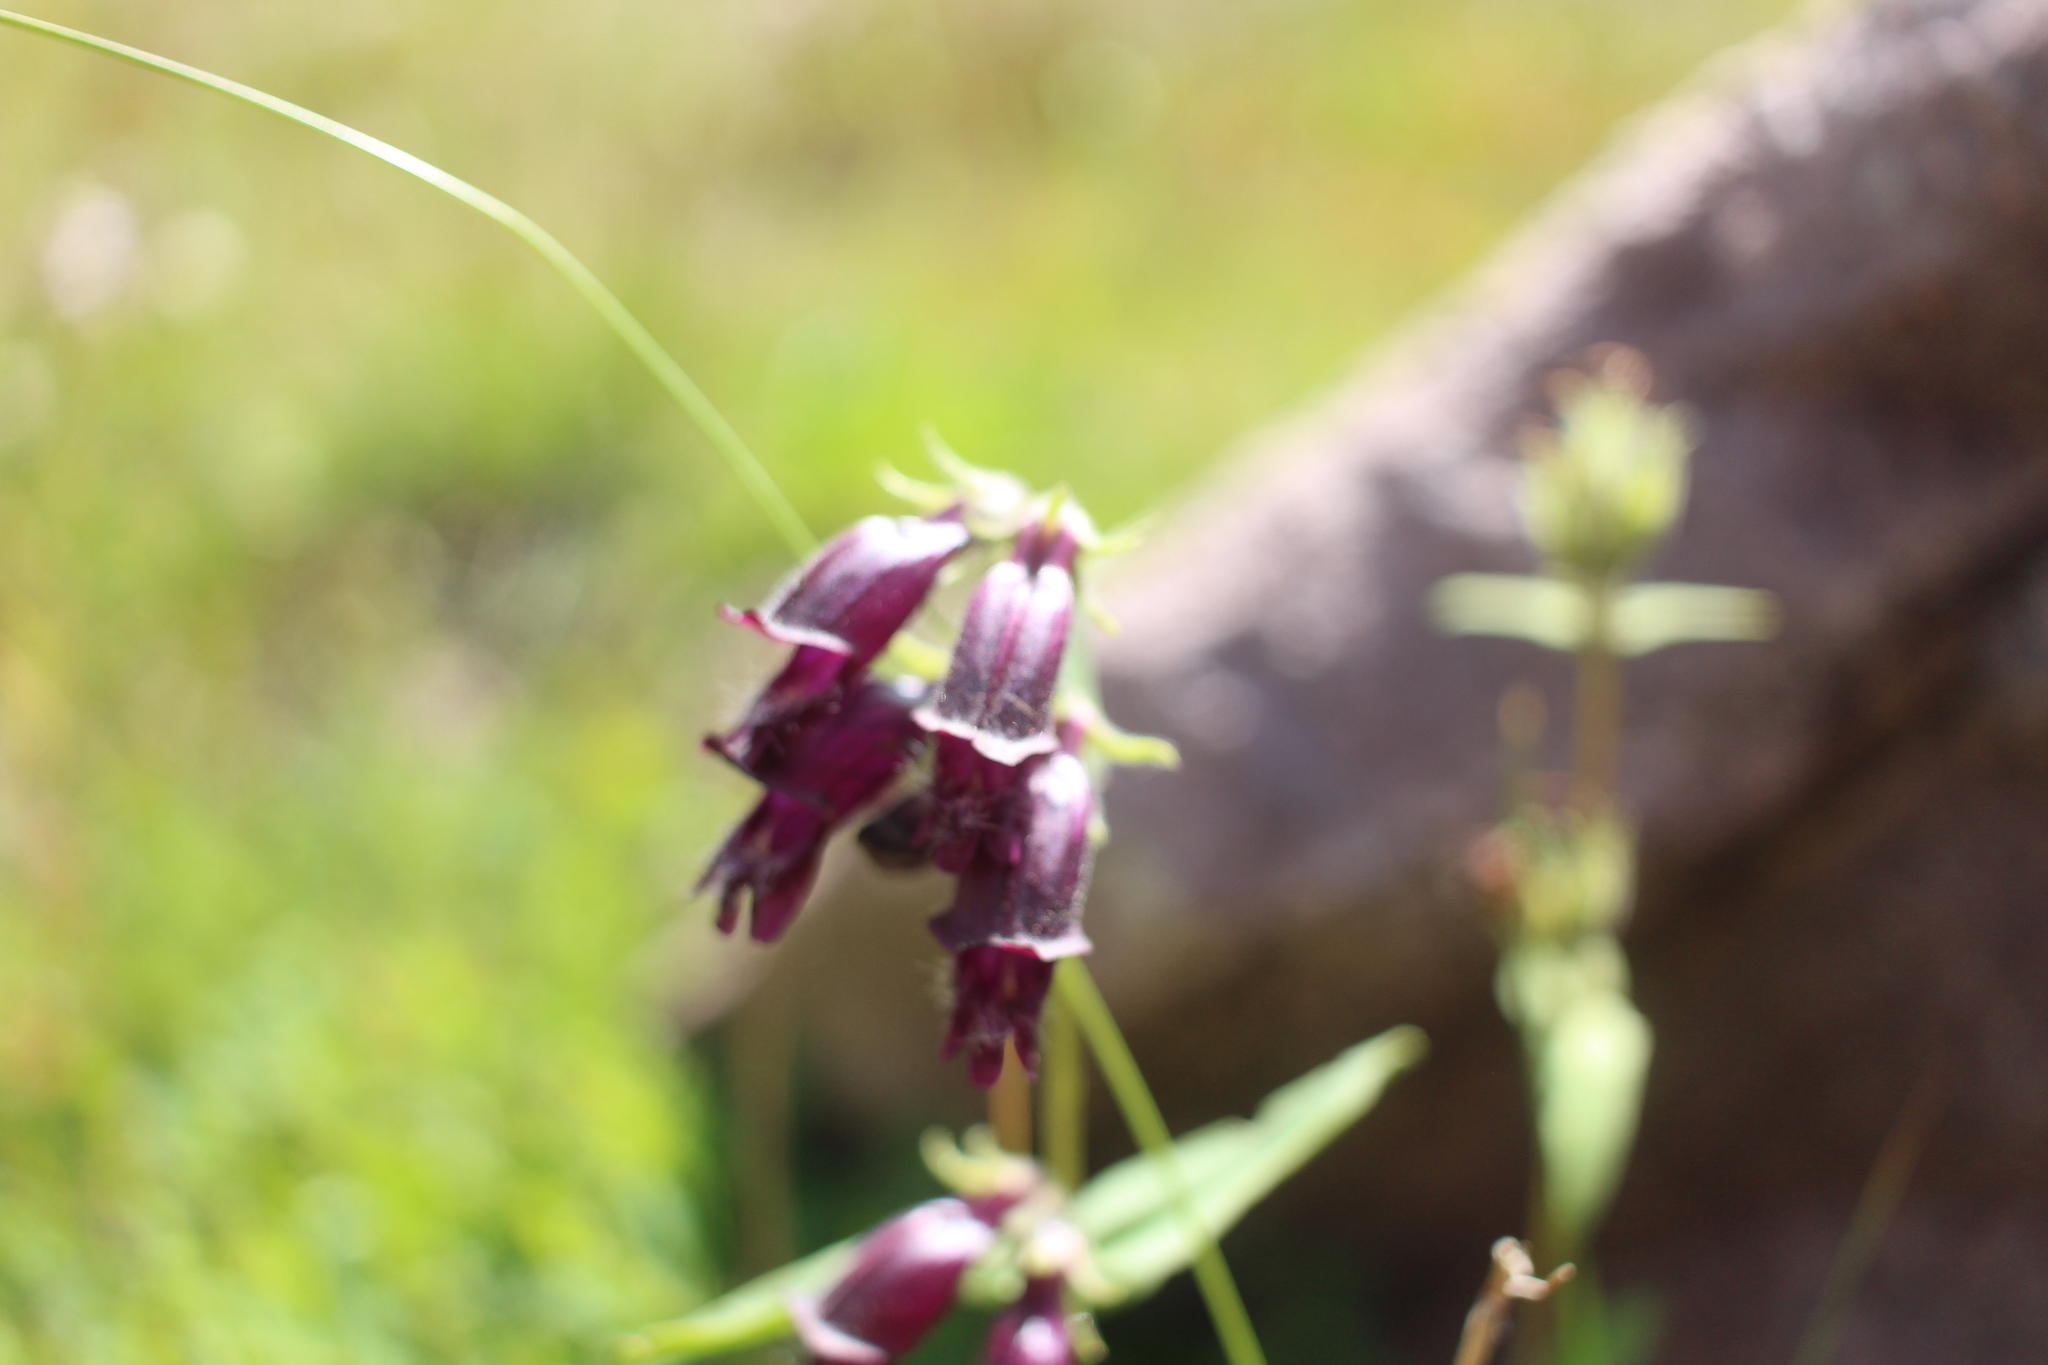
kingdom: Plantae
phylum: Tracheophyta
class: Magnoliopsida
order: Lamiales
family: Plantaginaceae
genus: Penstemon
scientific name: Penstemon whippleanus
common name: Whipple's penstemon
